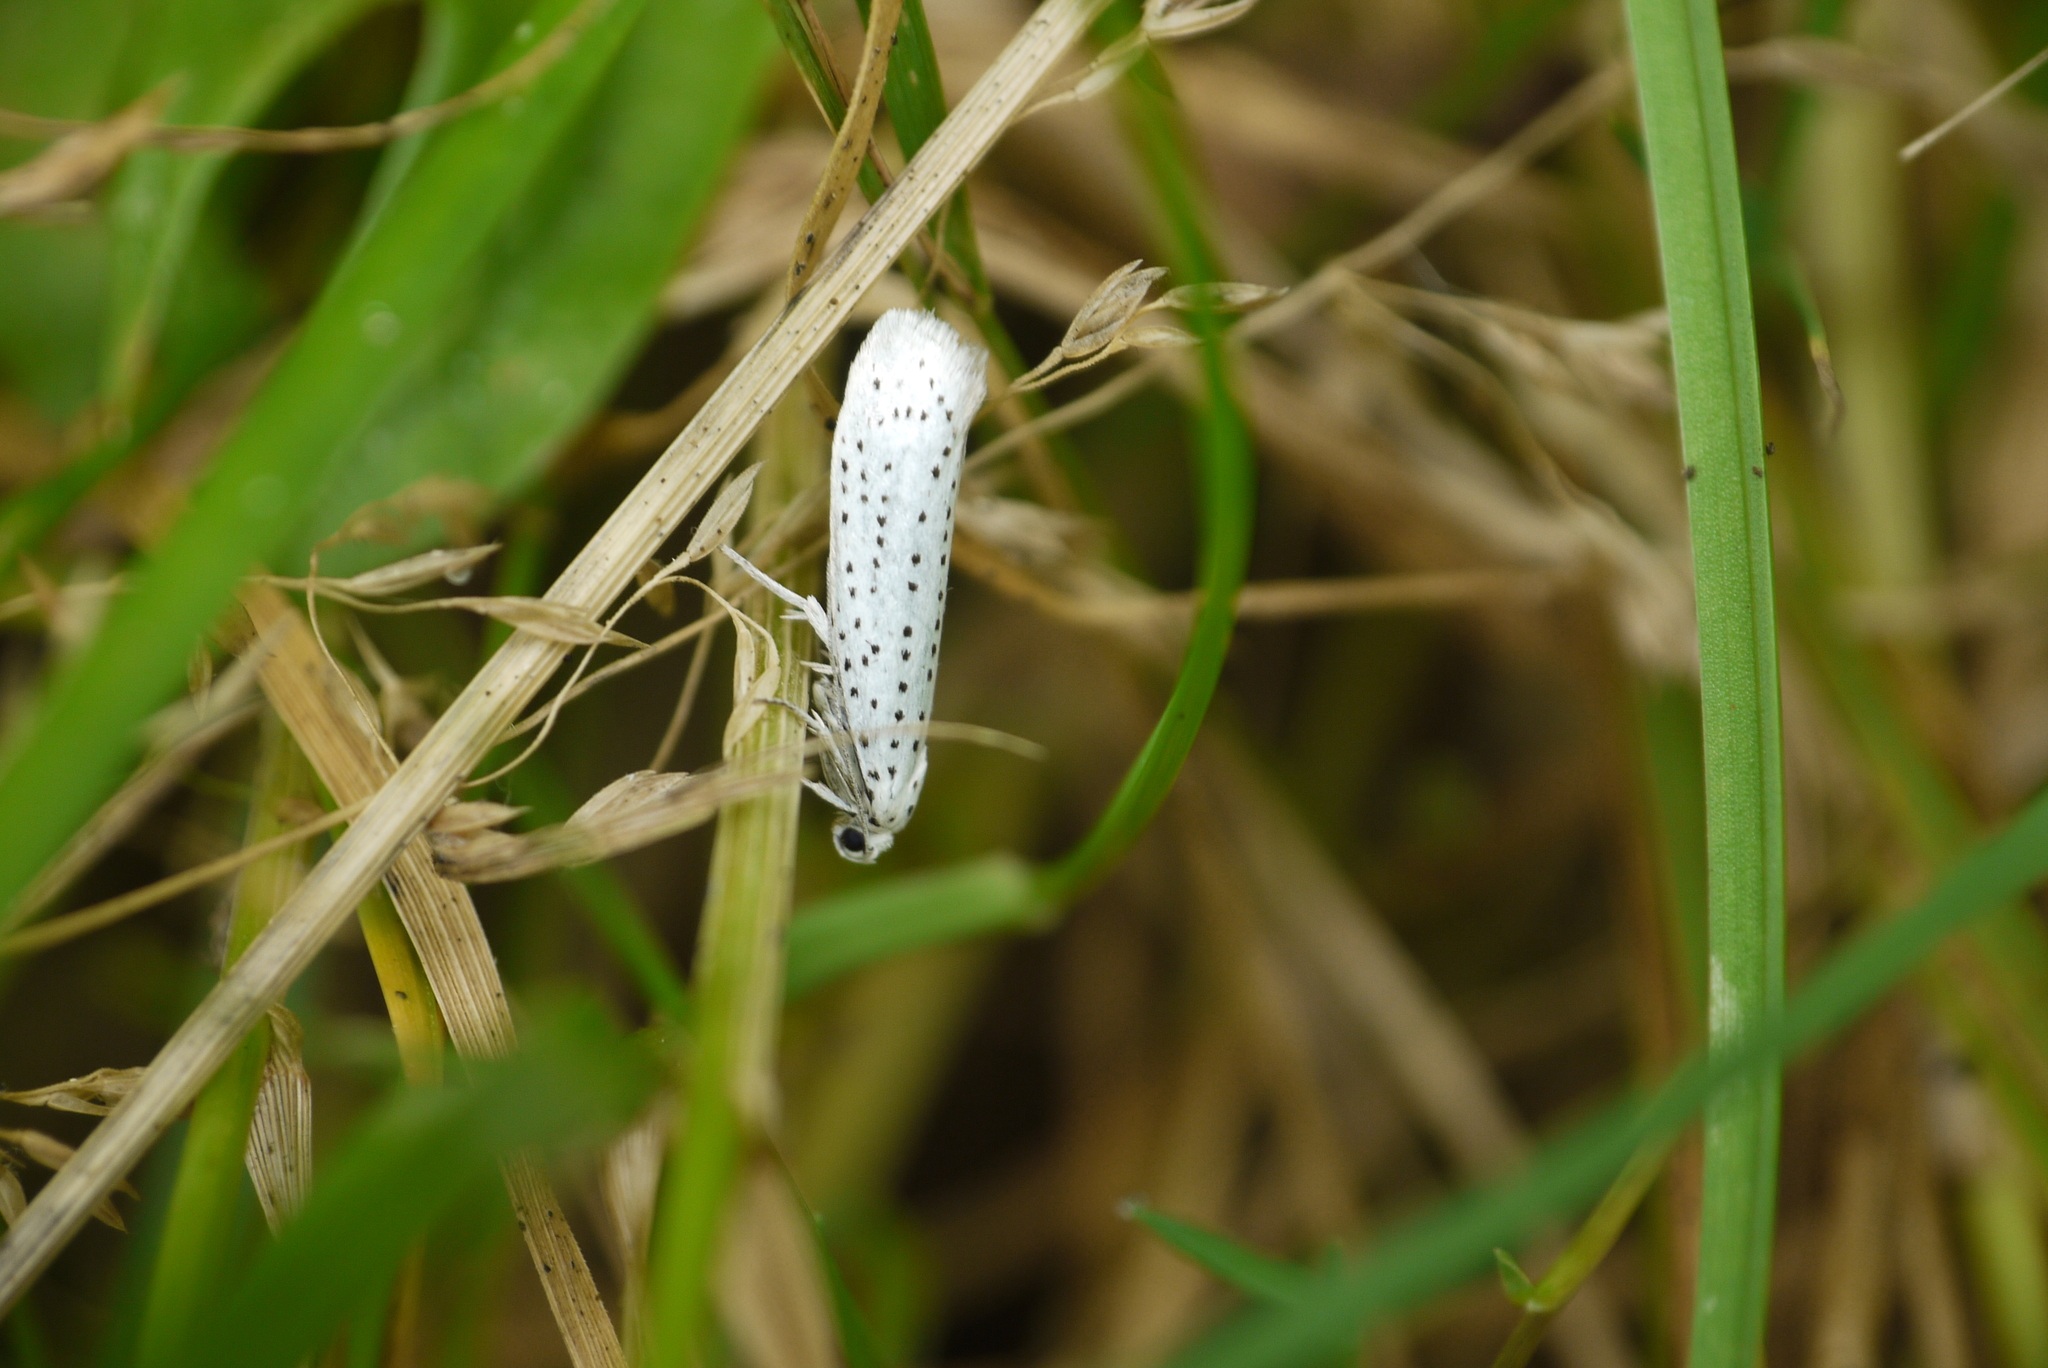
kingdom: Animalia
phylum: Arthropoda
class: Insecta
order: Lepidoptera
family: Yponomeutidae
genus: Yponomeuta
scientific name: Yponomeuta evonymella
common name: Bird-cherry ermine
